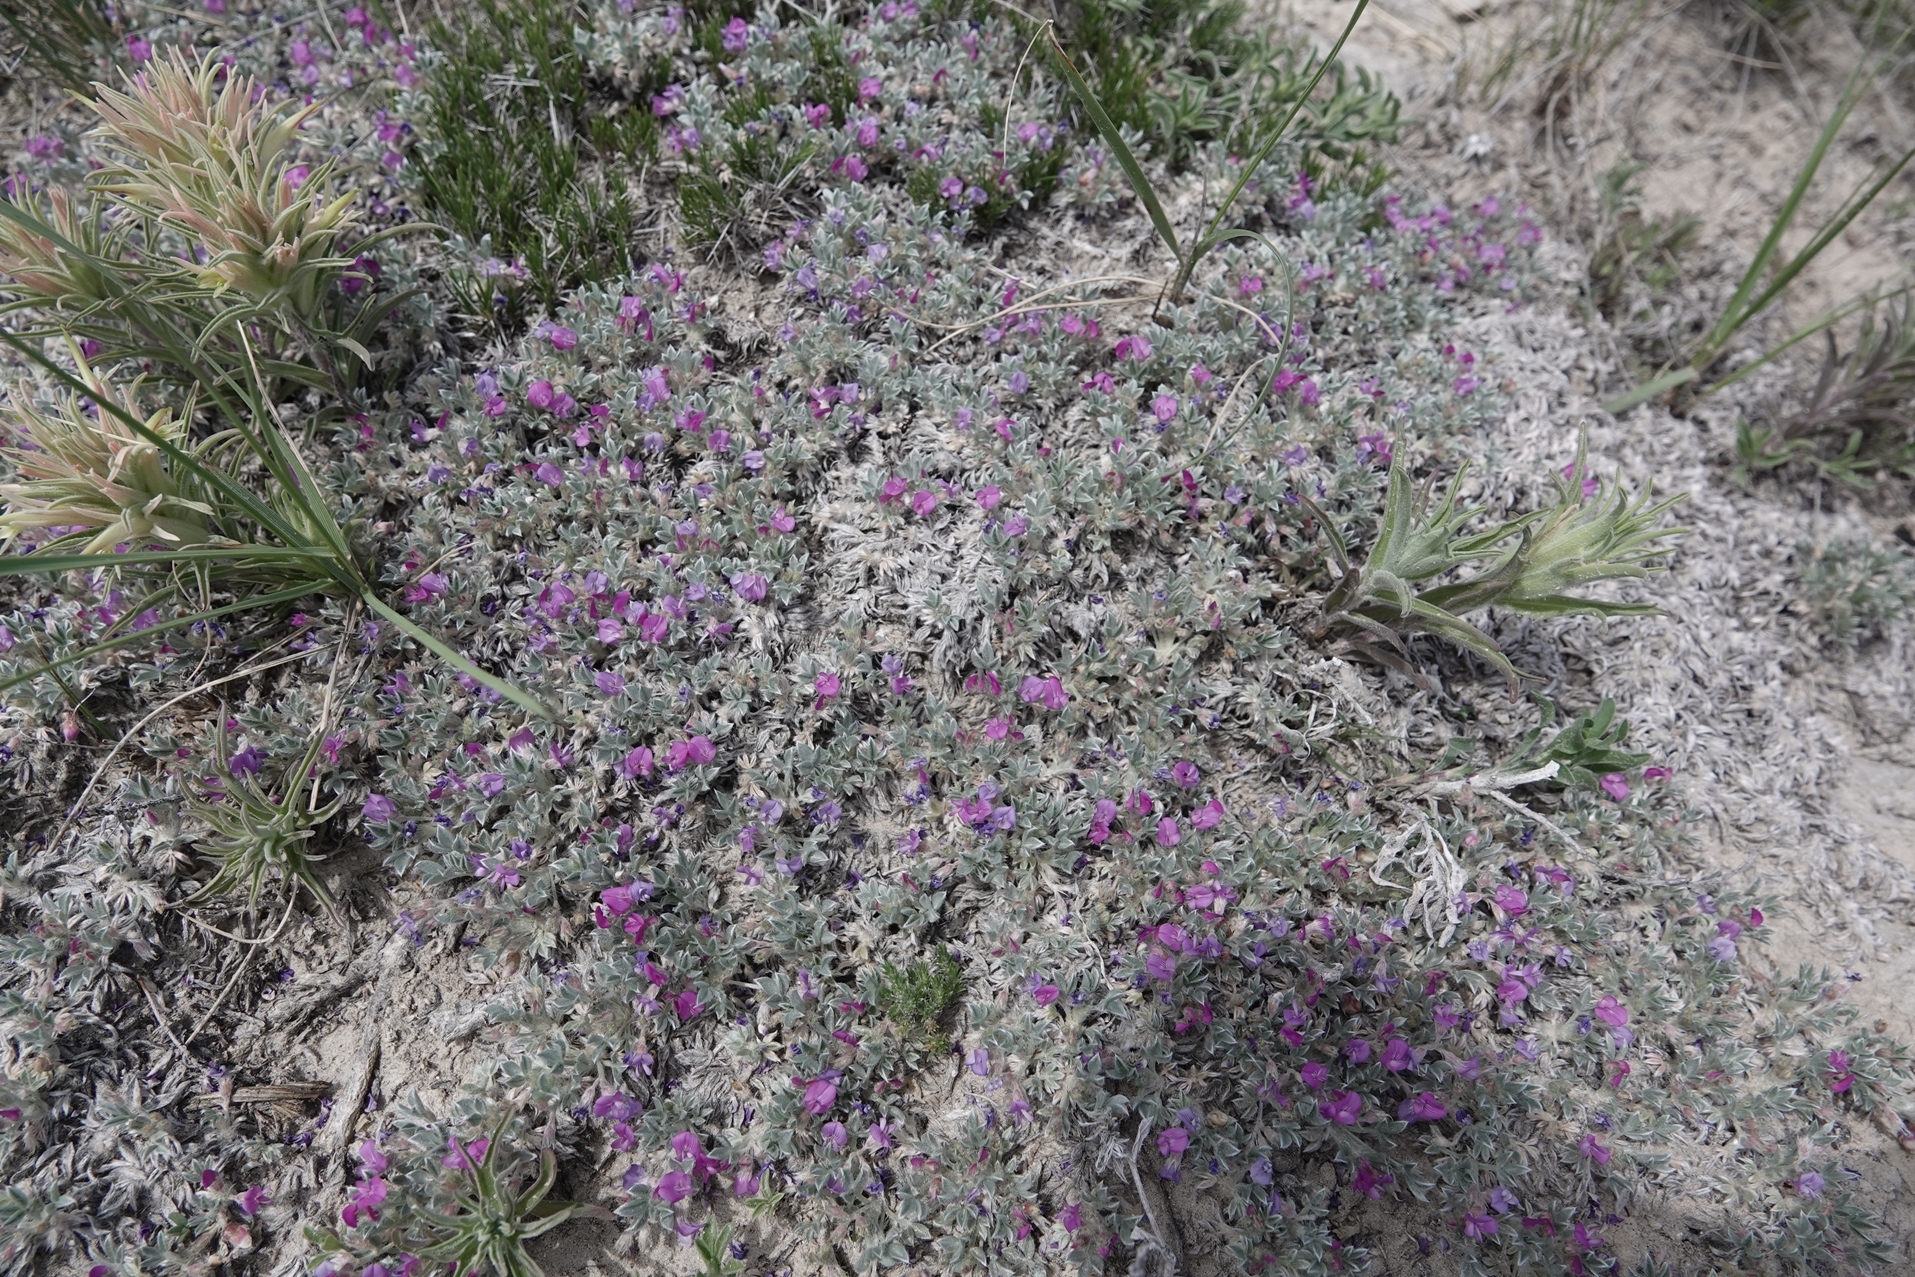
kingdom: Plantae
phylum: Tracheophyta
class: Magnoliopsida
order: Fabales
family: Fabaceae
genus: Astragalus
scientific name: Astragalus sericoleucus
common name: Silky orophaca
